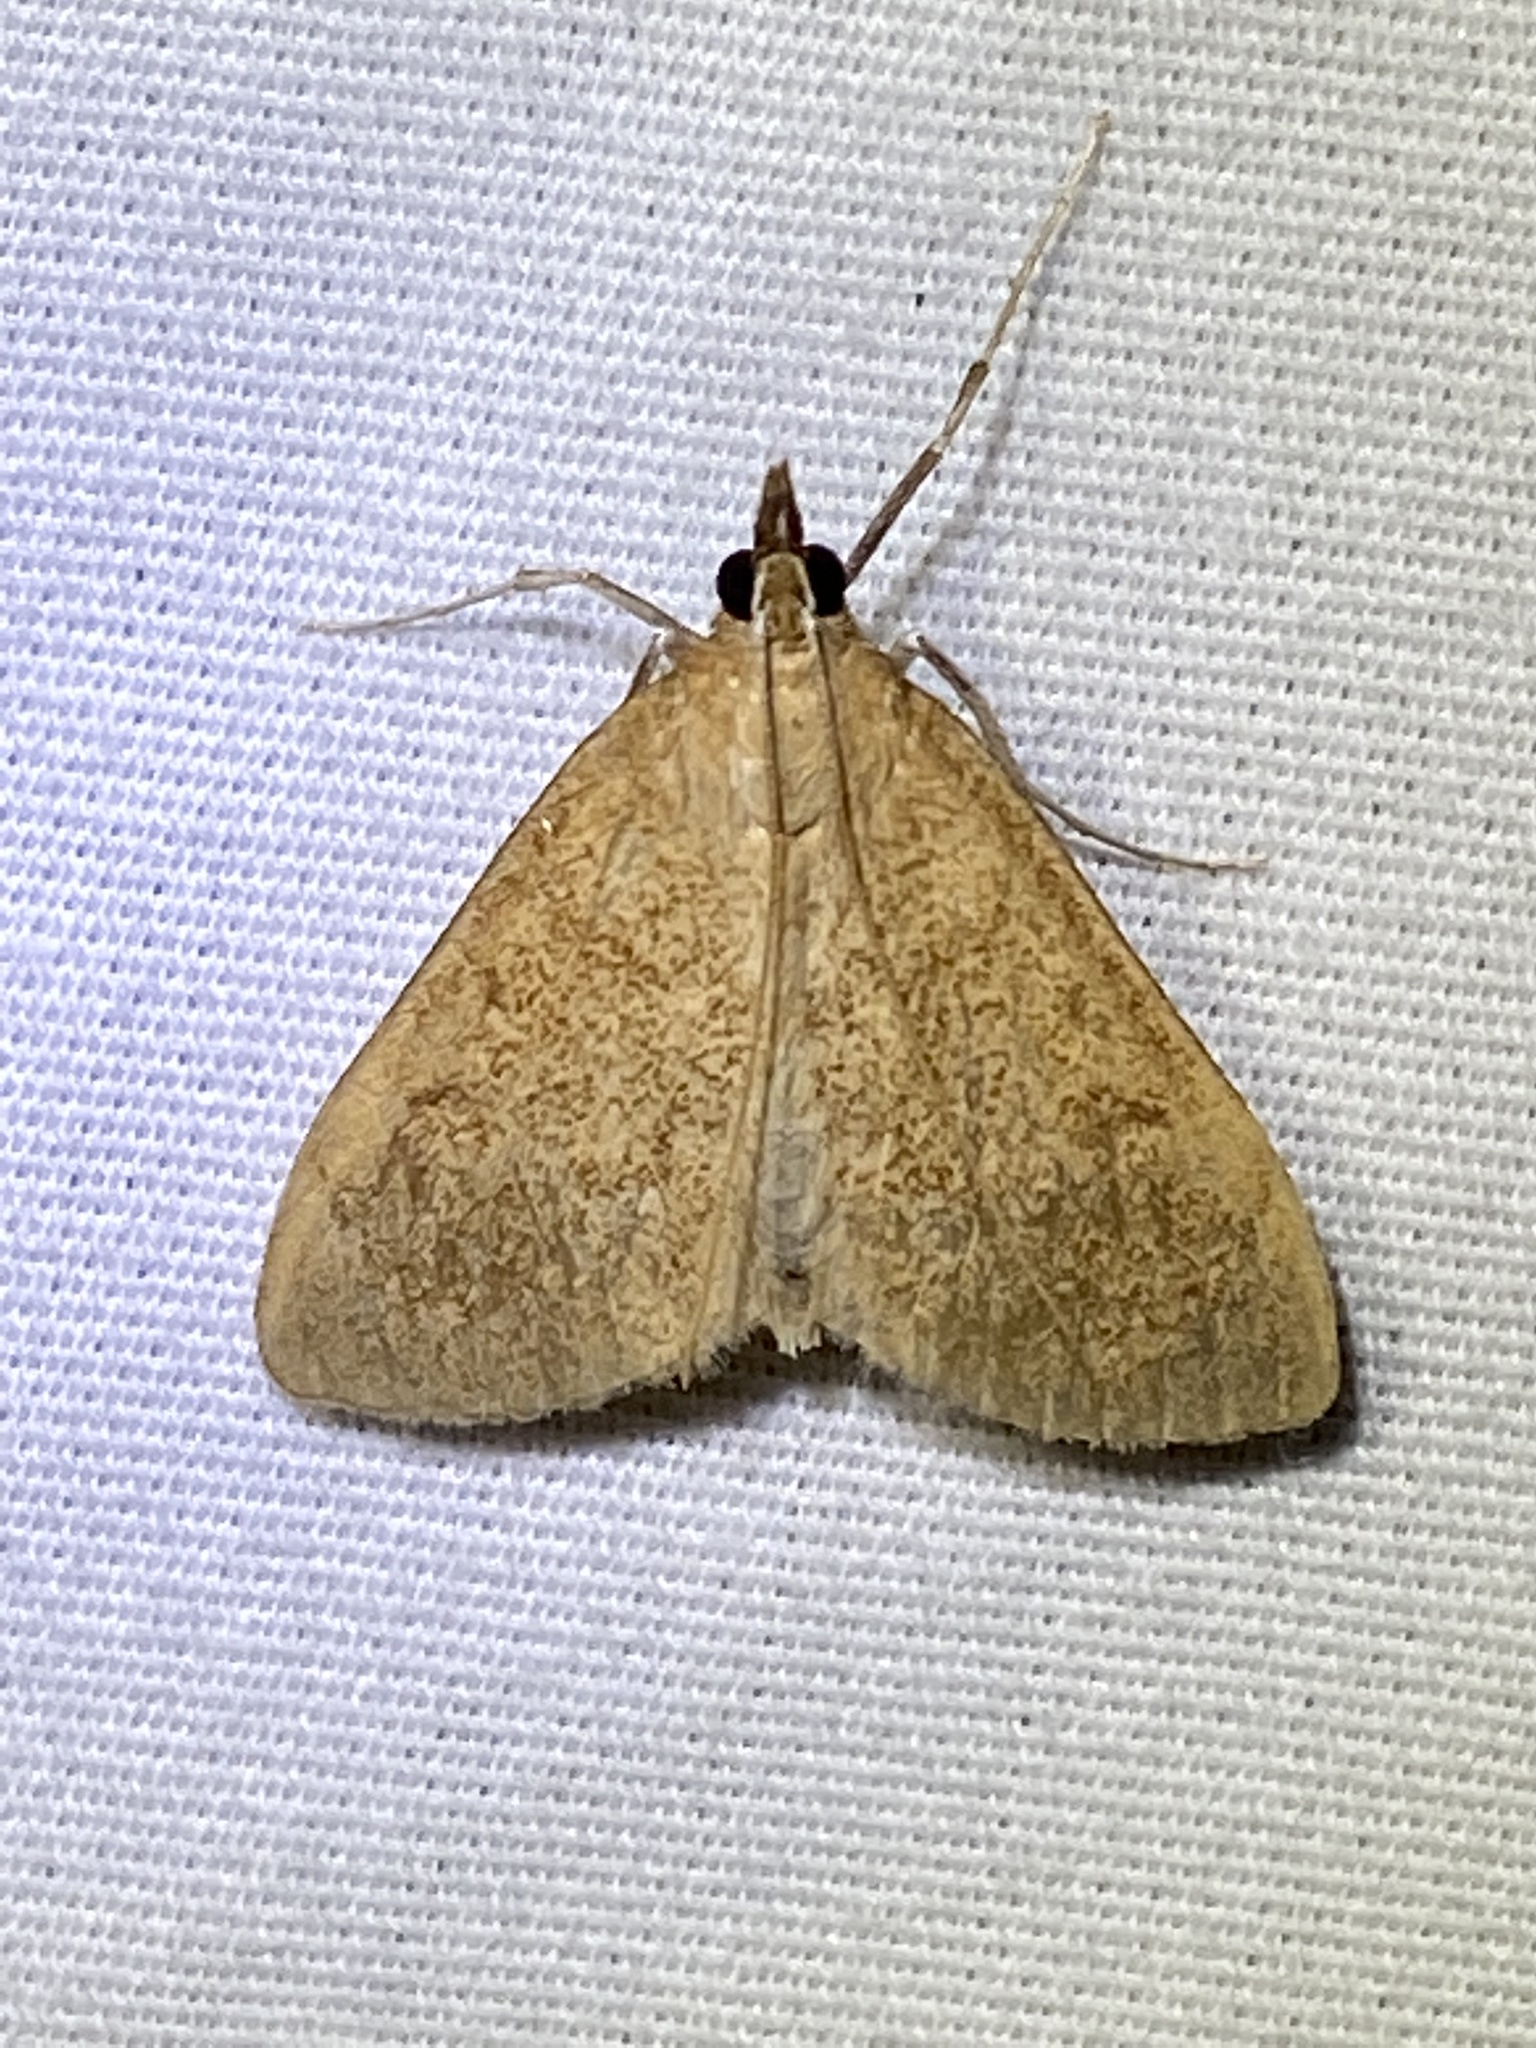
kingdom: Animalia
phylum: Arthropoda
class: Insecta
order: Lepidoptera
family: Crambidae
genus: Saucrobotys
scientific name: Saucrobotys futilalis
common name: Dogbane saucrobotys moth
